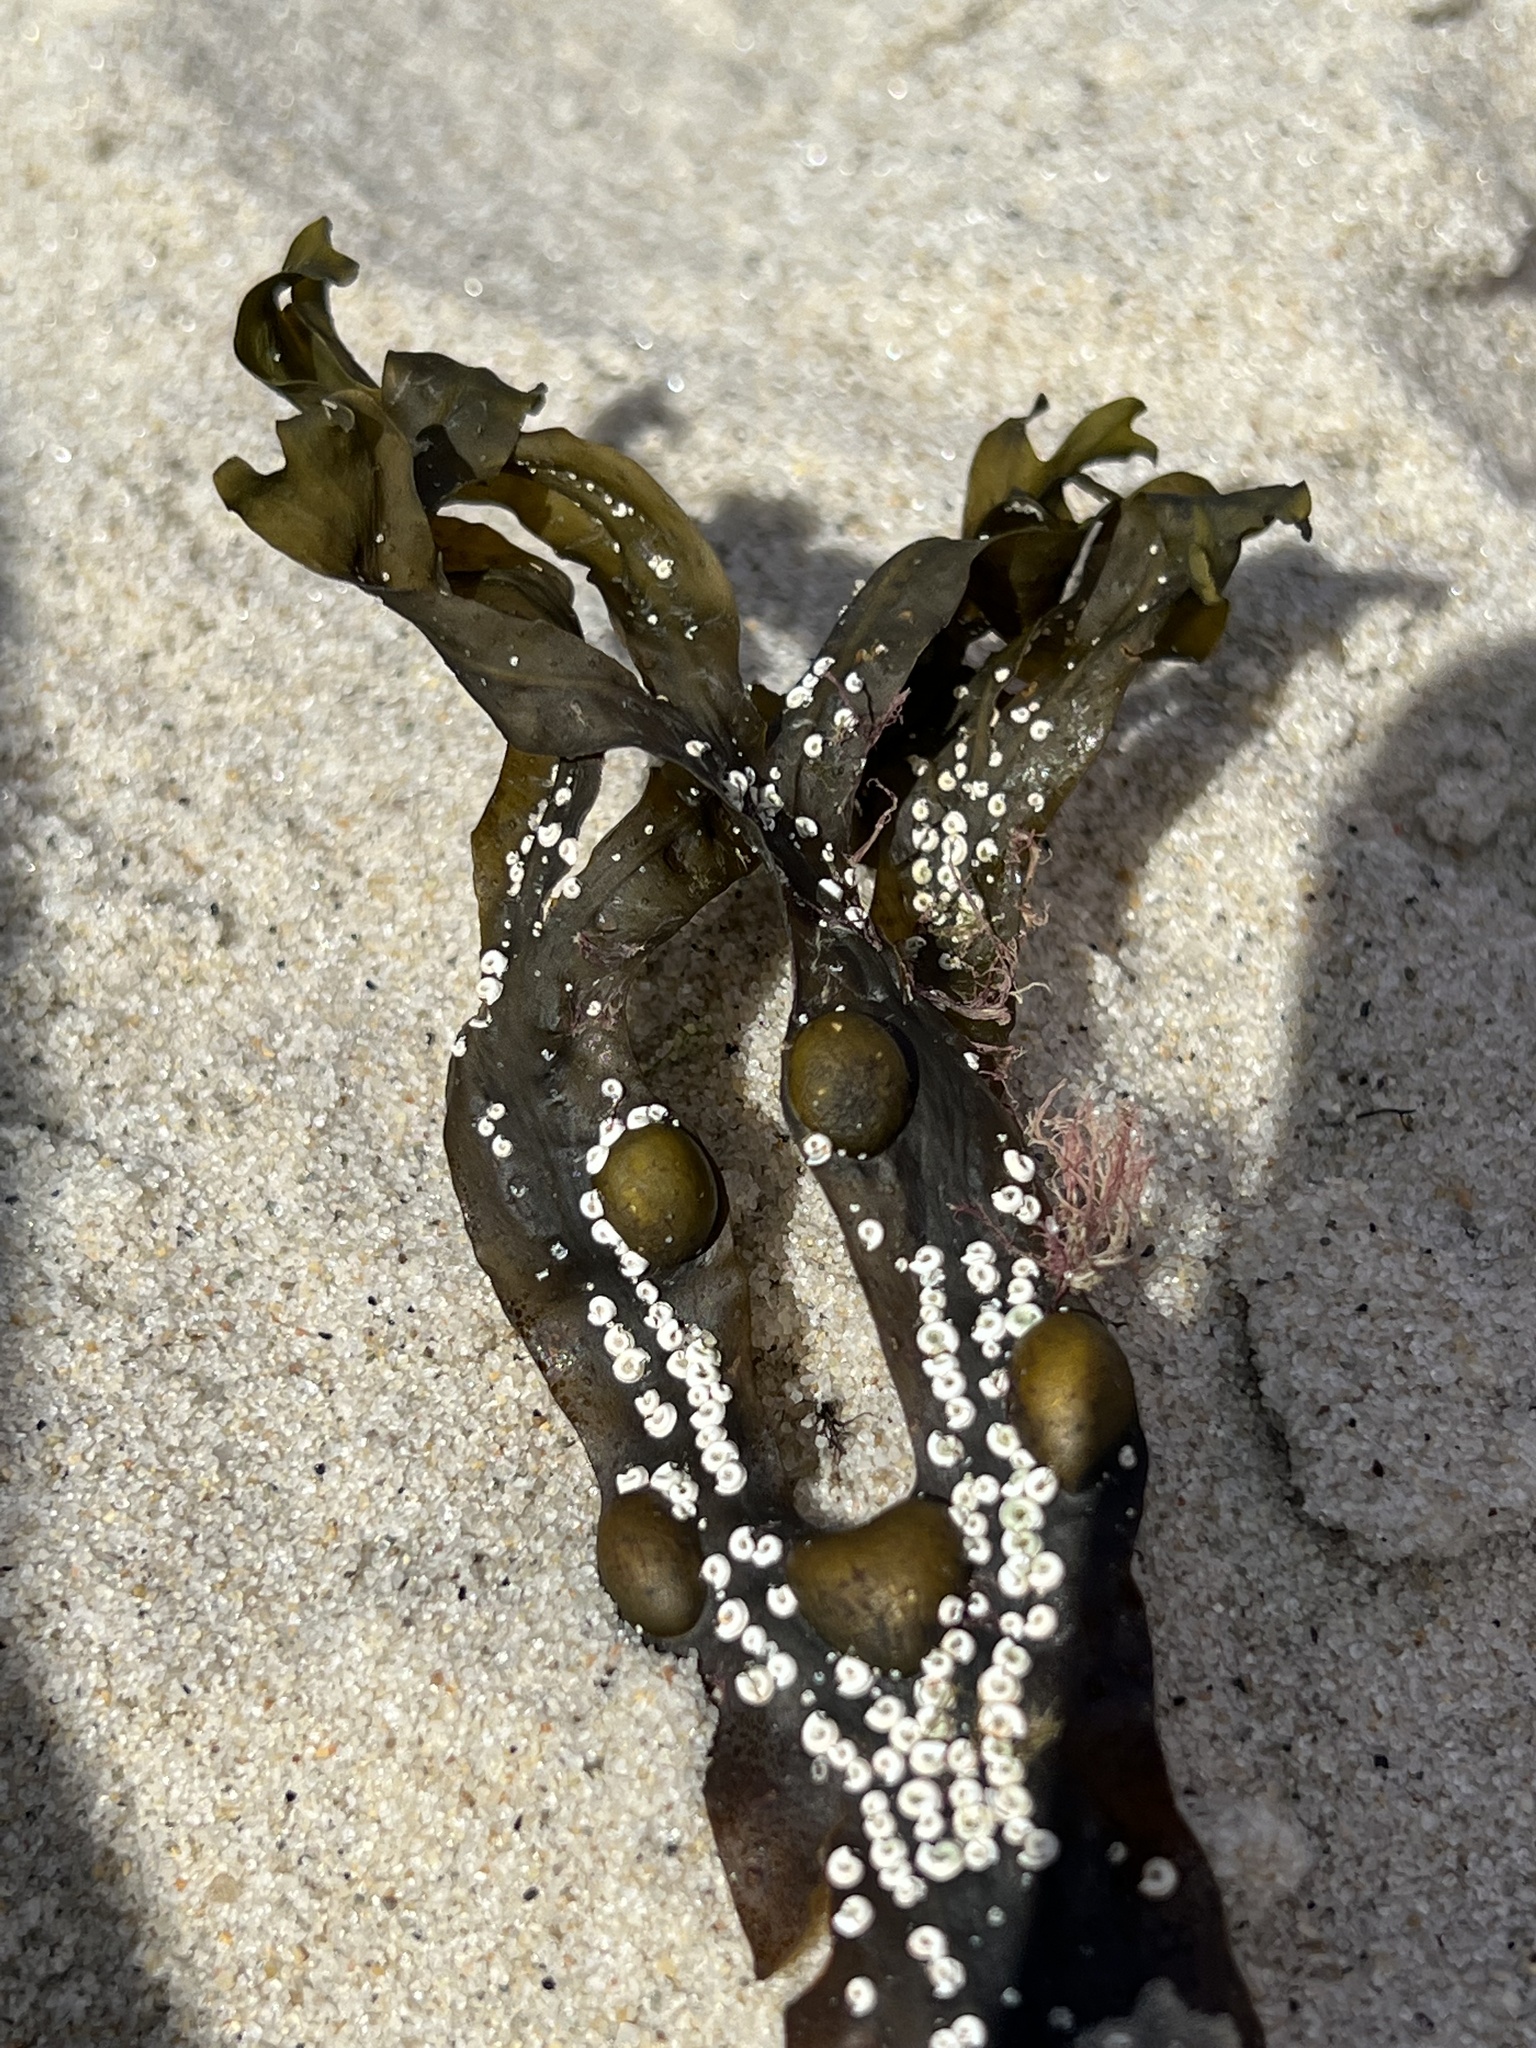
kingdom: Chromista
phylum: Ochrophyta
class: Phaeophyceae
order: Fucales
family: Fucaceae
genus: Fucus
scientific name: Fucus vesiculosus
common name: Bladder wrack
